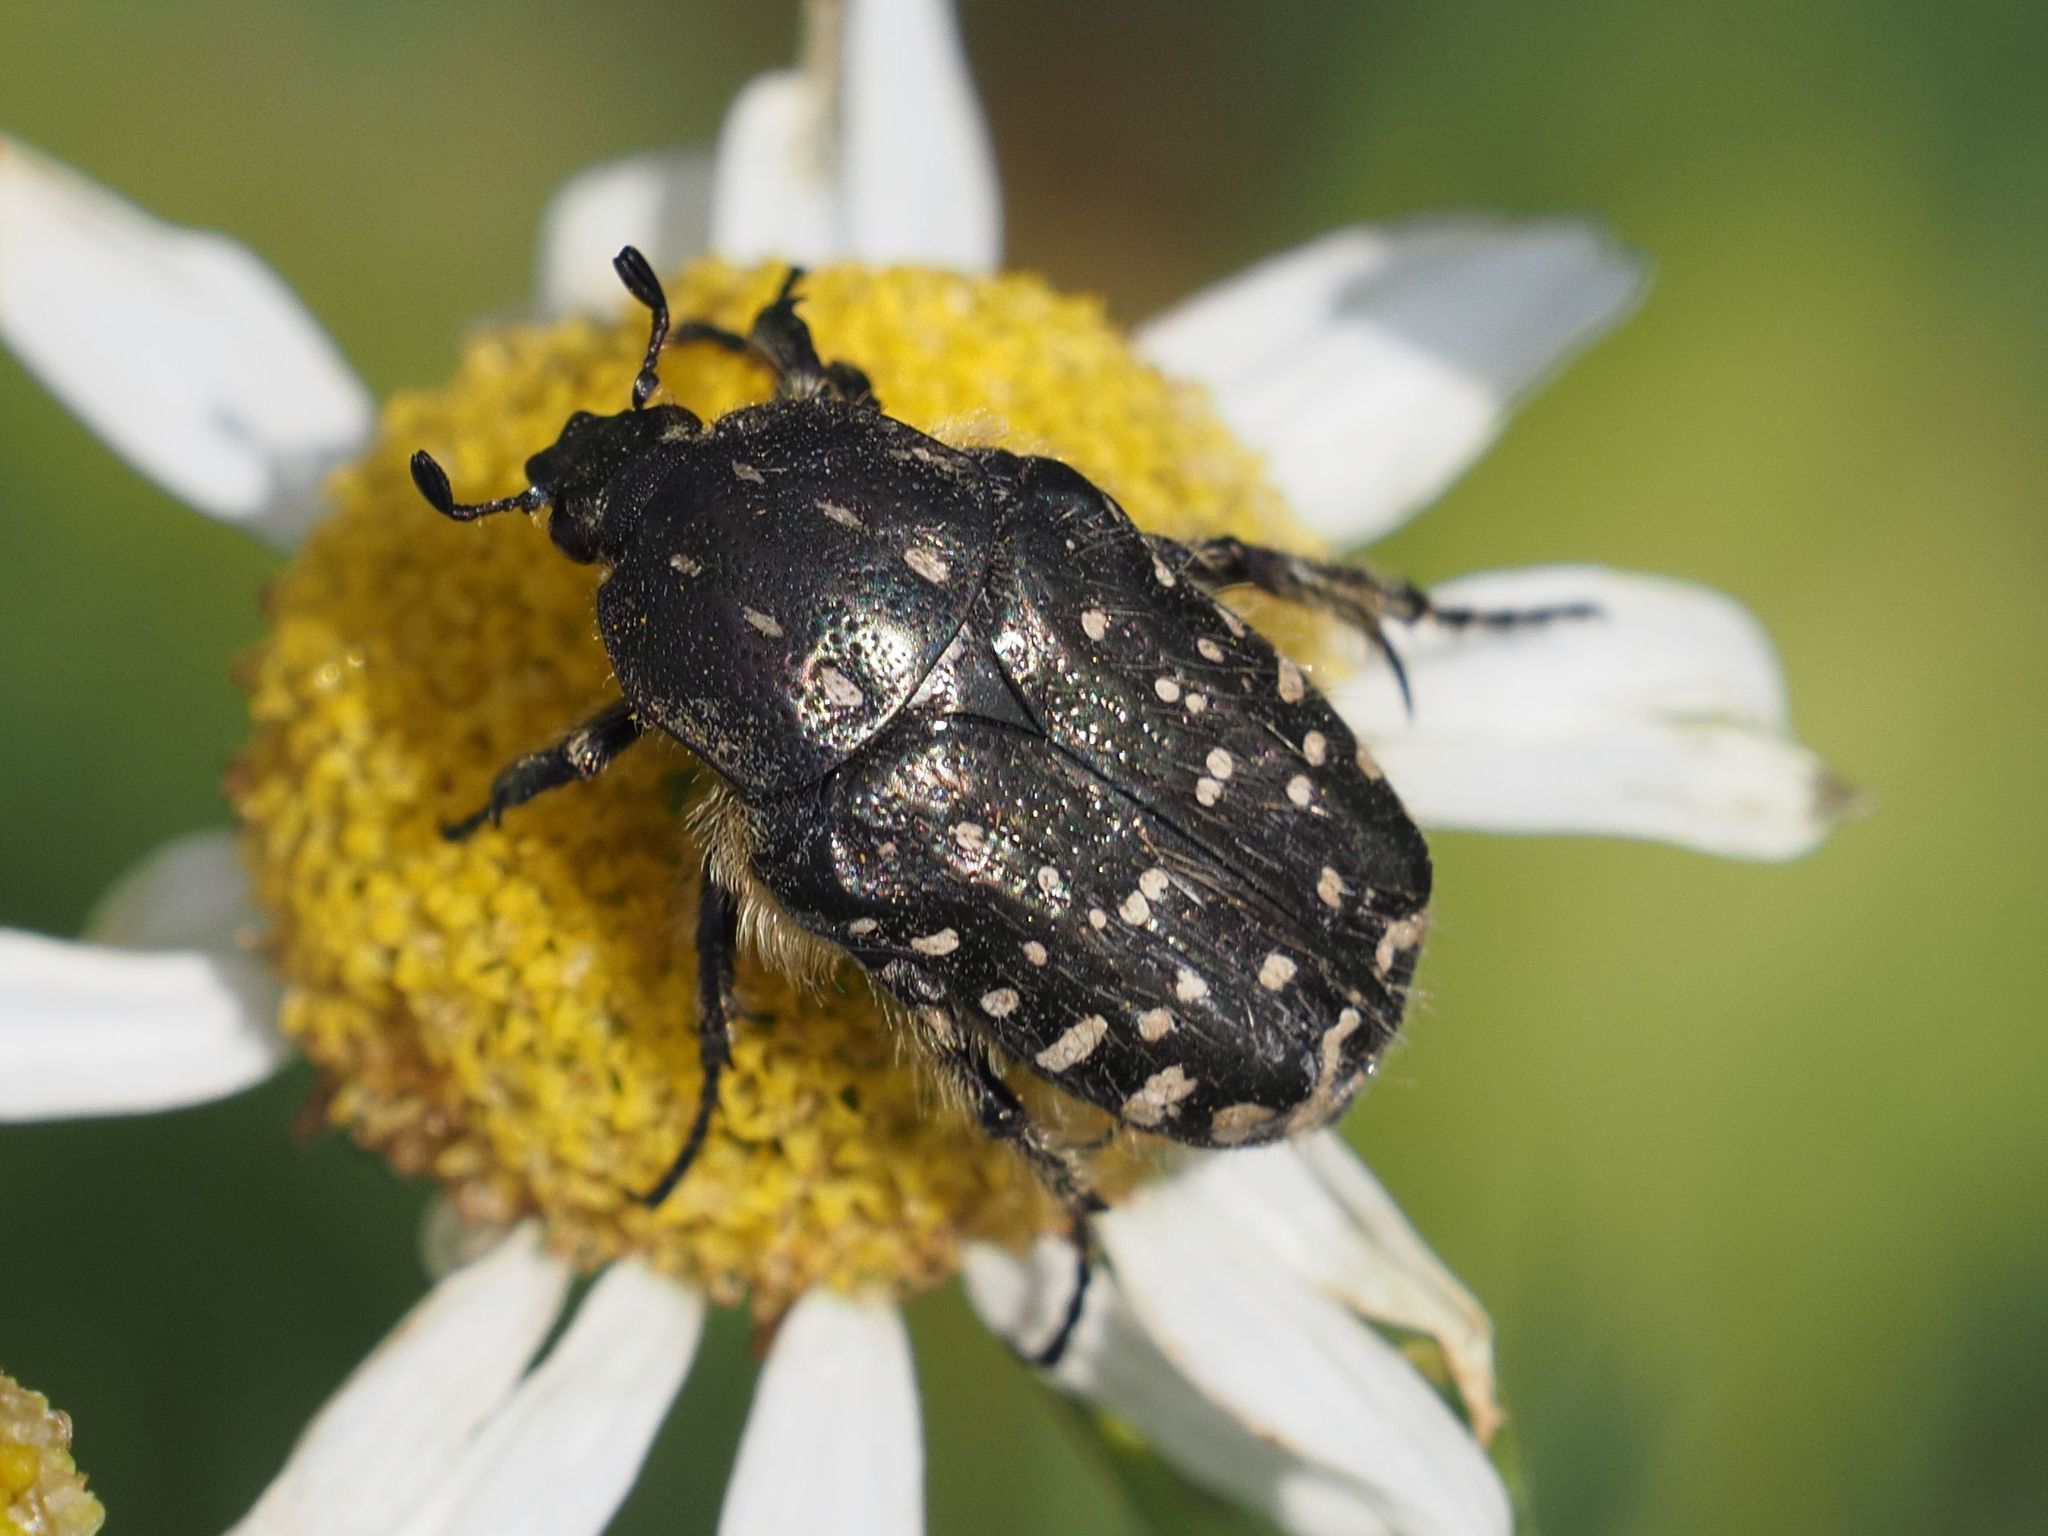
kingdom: Animalia
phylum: Arthropoda
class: Insecta
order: Coleoptera
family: Scarabaeidae
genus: Oxythyrea
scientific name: Oxythyrea funesta
